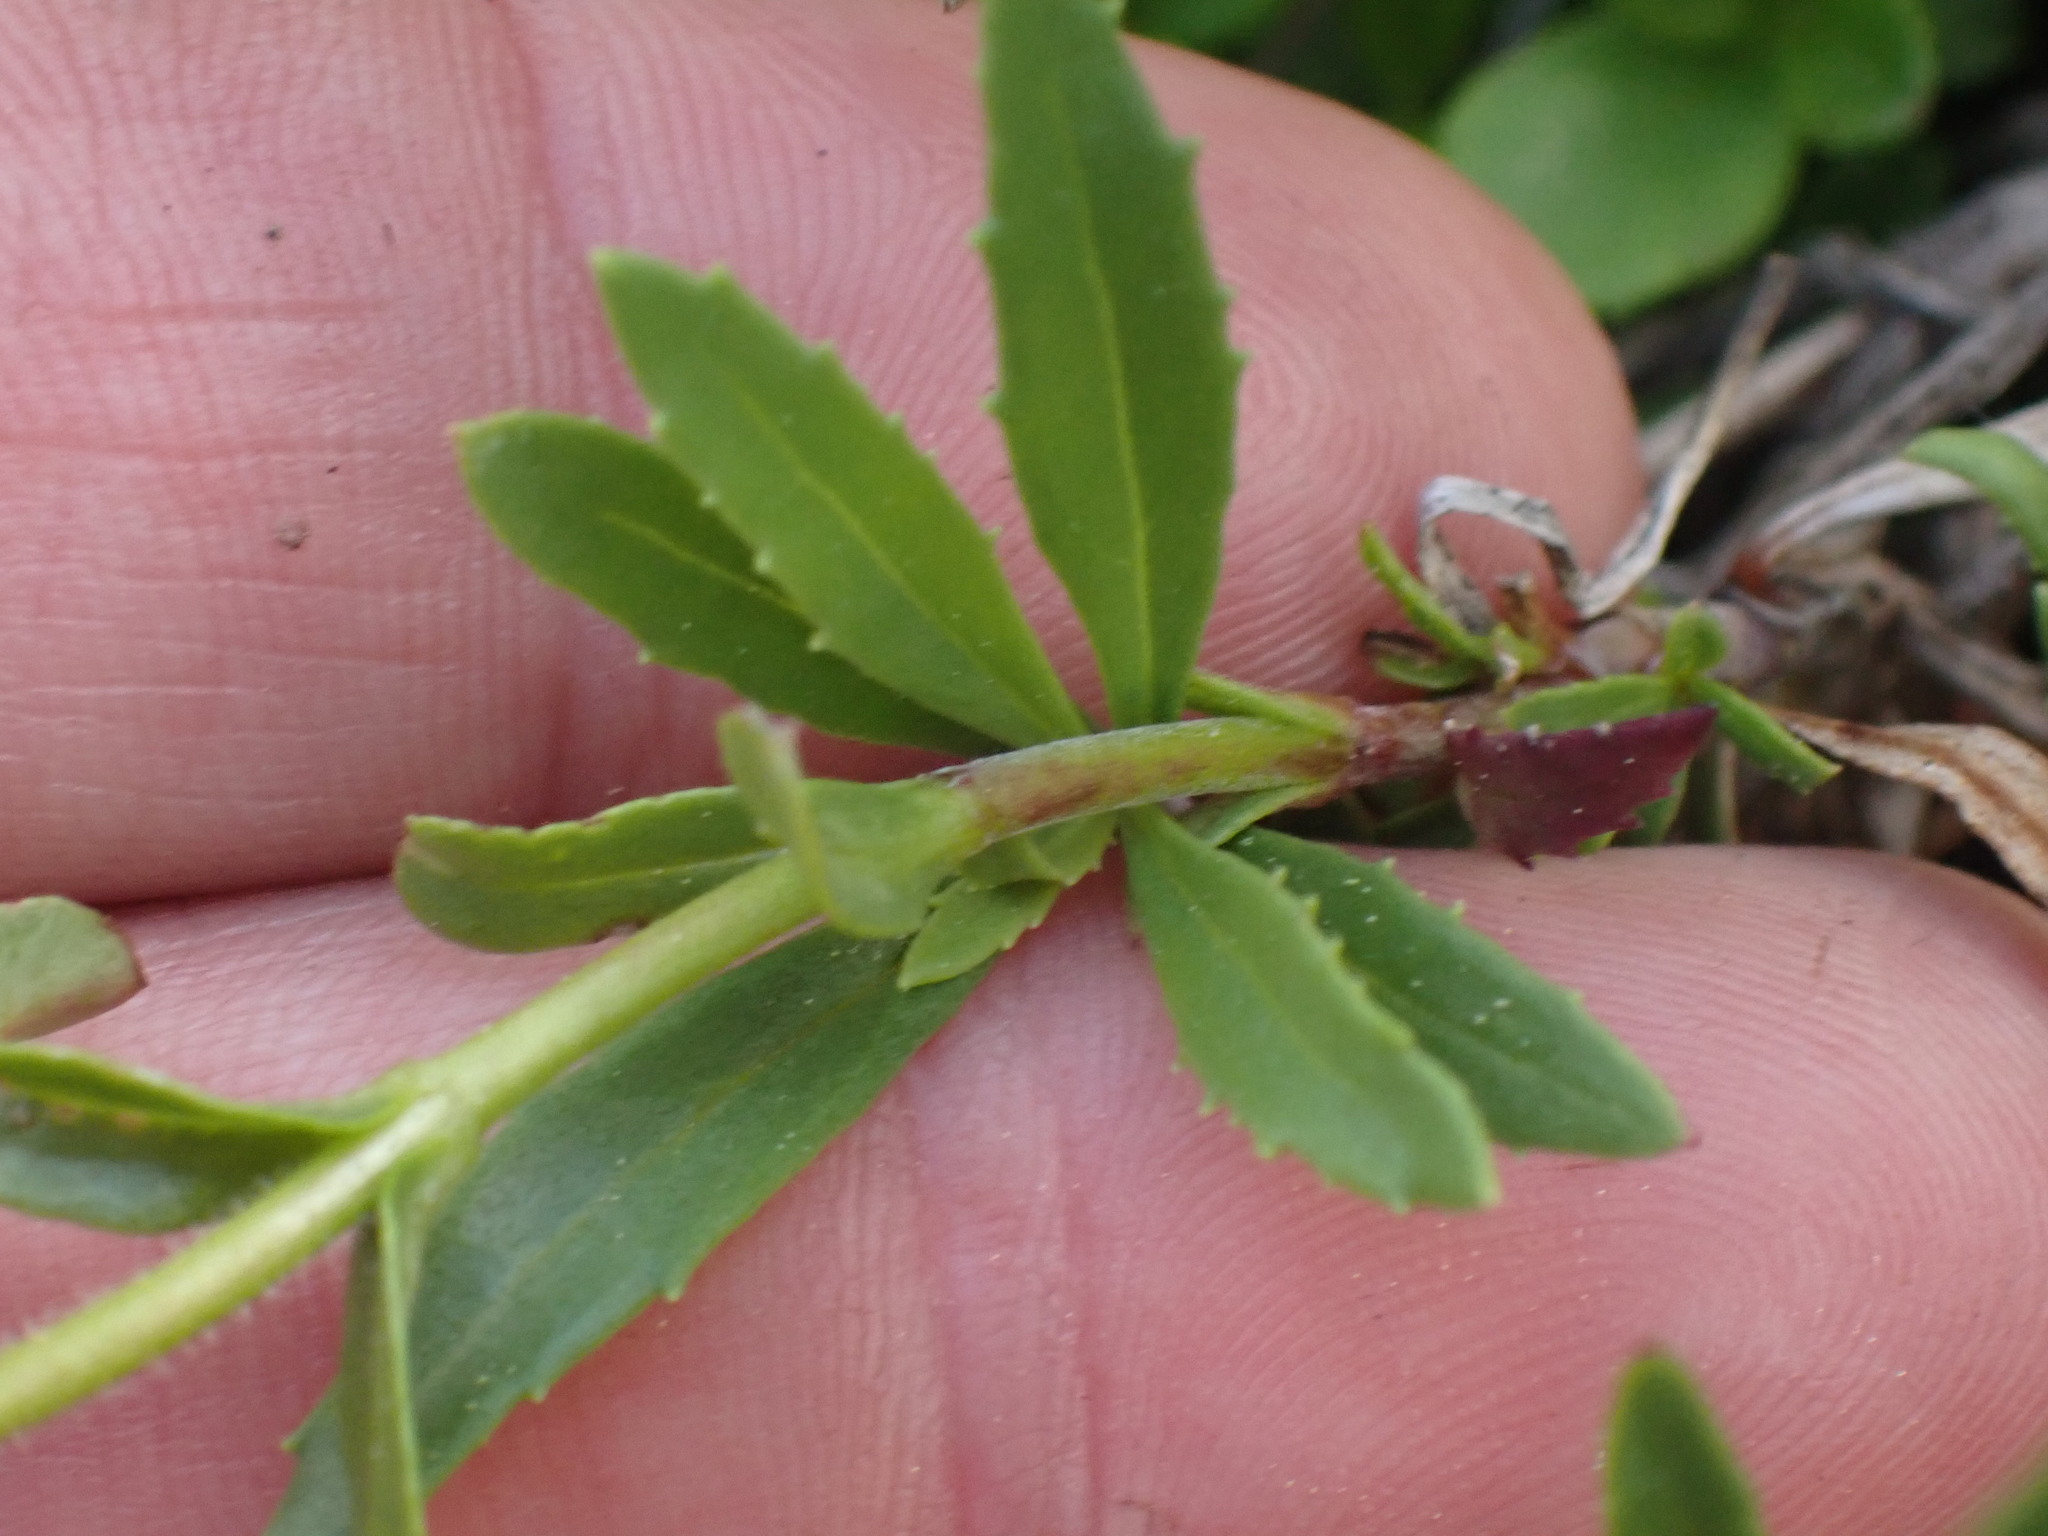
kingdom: Plantae
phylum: Tracheophyta
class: Magnoliopsida
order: Lamiales
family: Plantaginaceae
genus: Penstemon
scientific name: Penstemon fruticosus
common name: Bush penstemon
